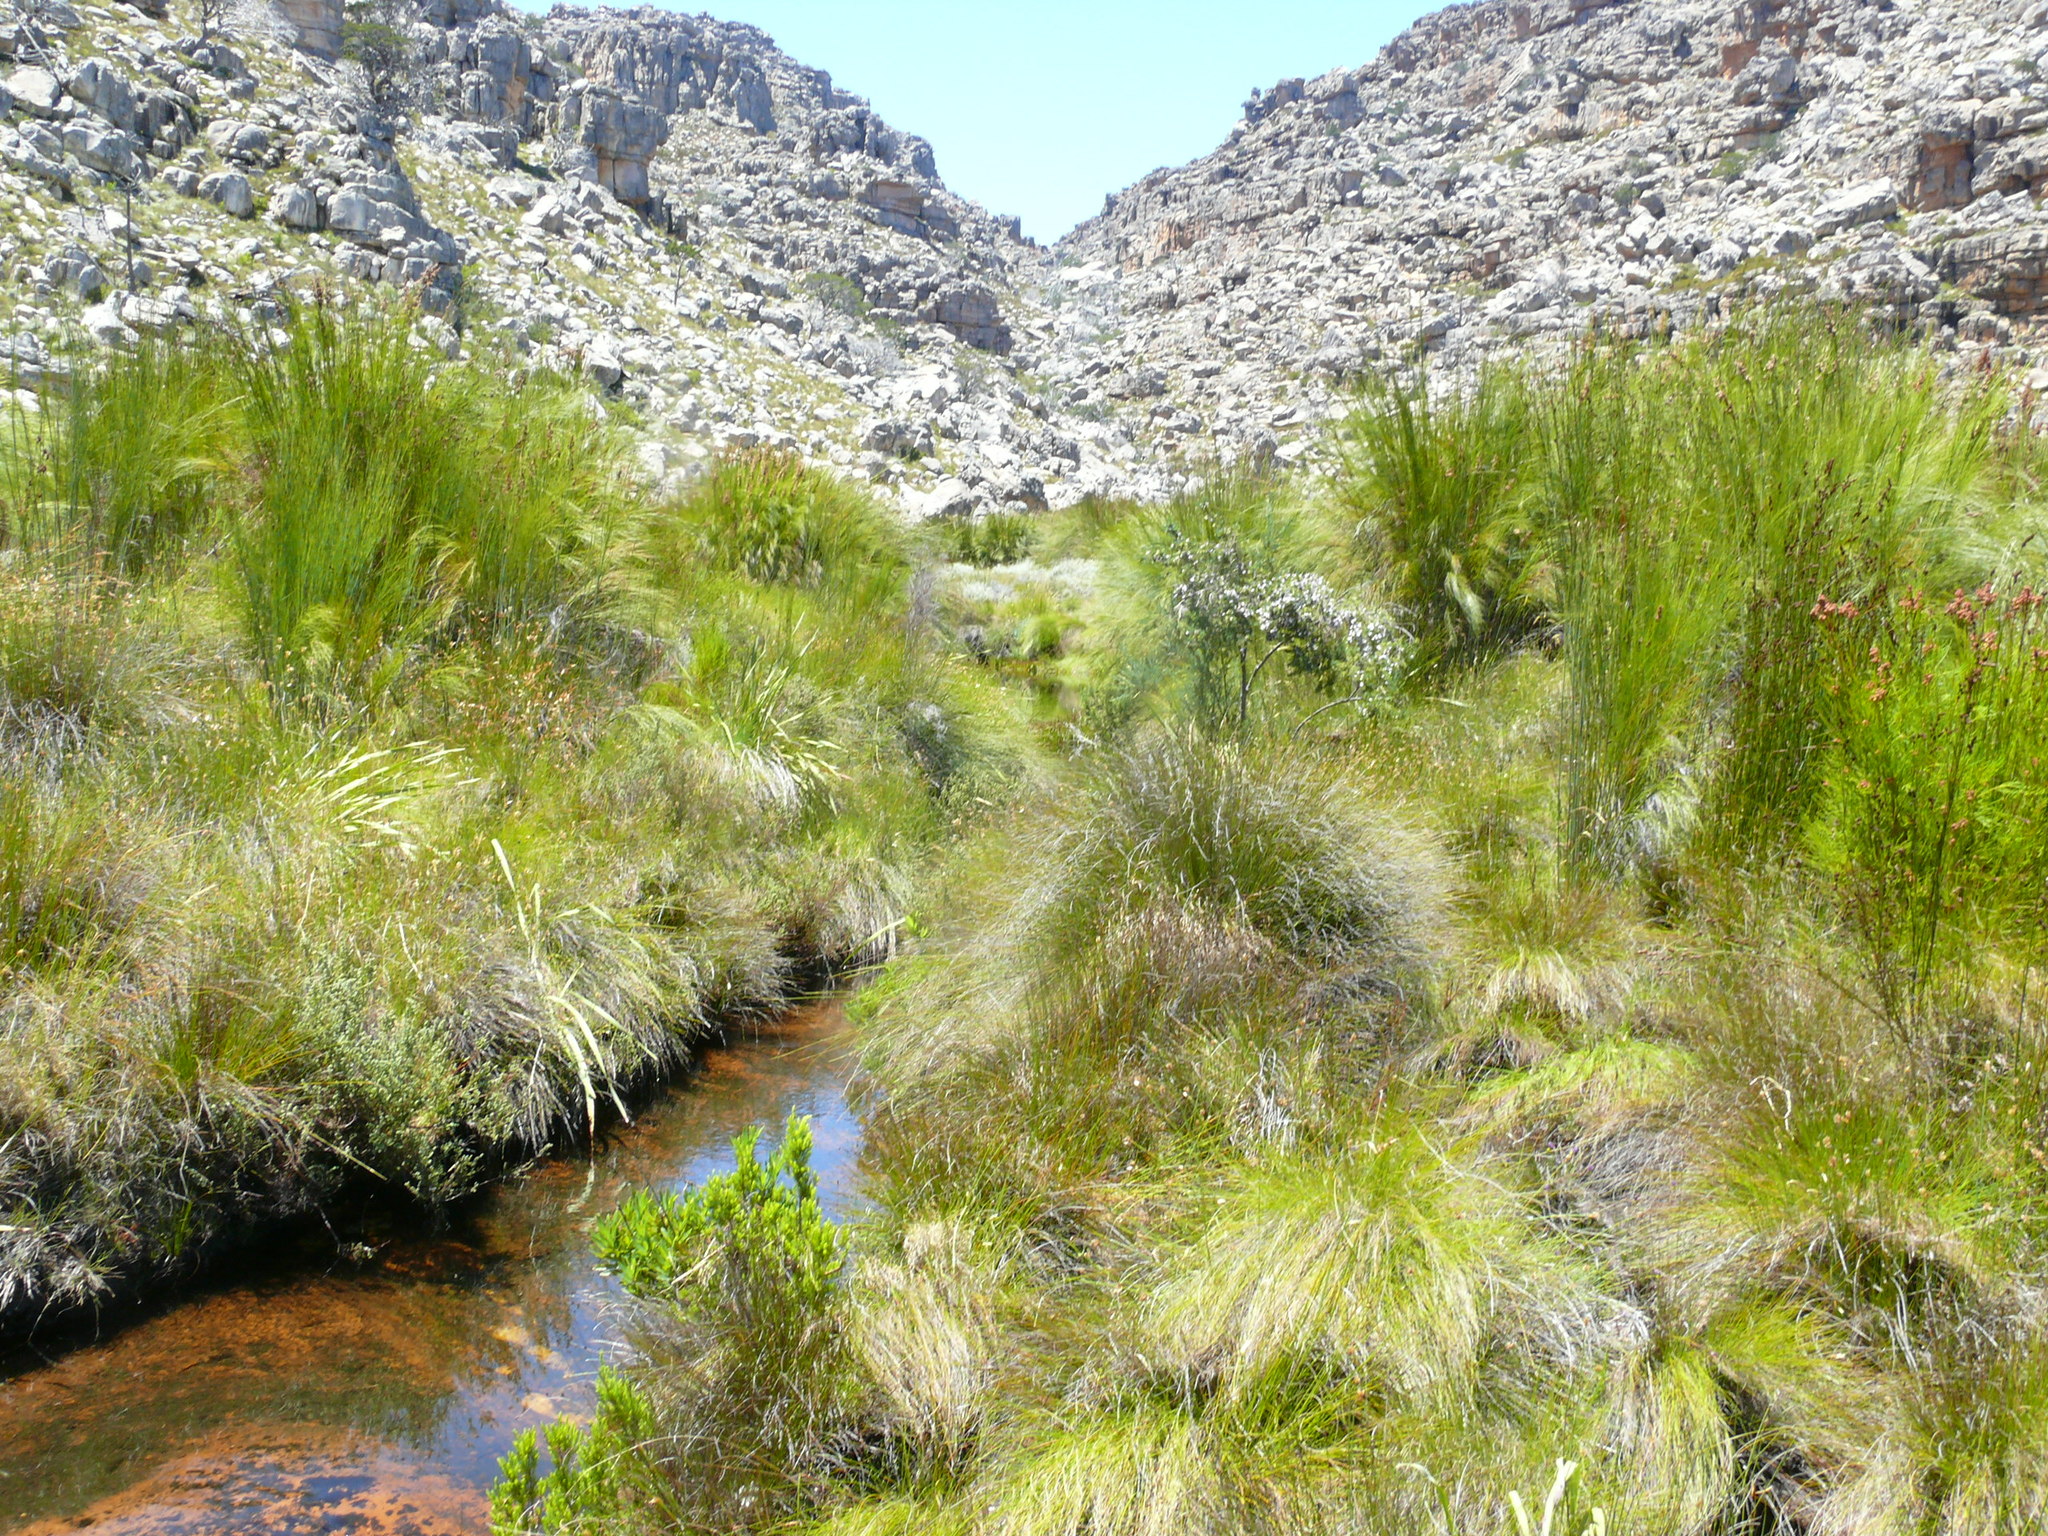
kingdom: Plantae
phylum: Tracheophyta
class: Liliopsida
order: Poales
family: Restionaceae
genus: Cannomois
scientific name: Cannomois robusta
